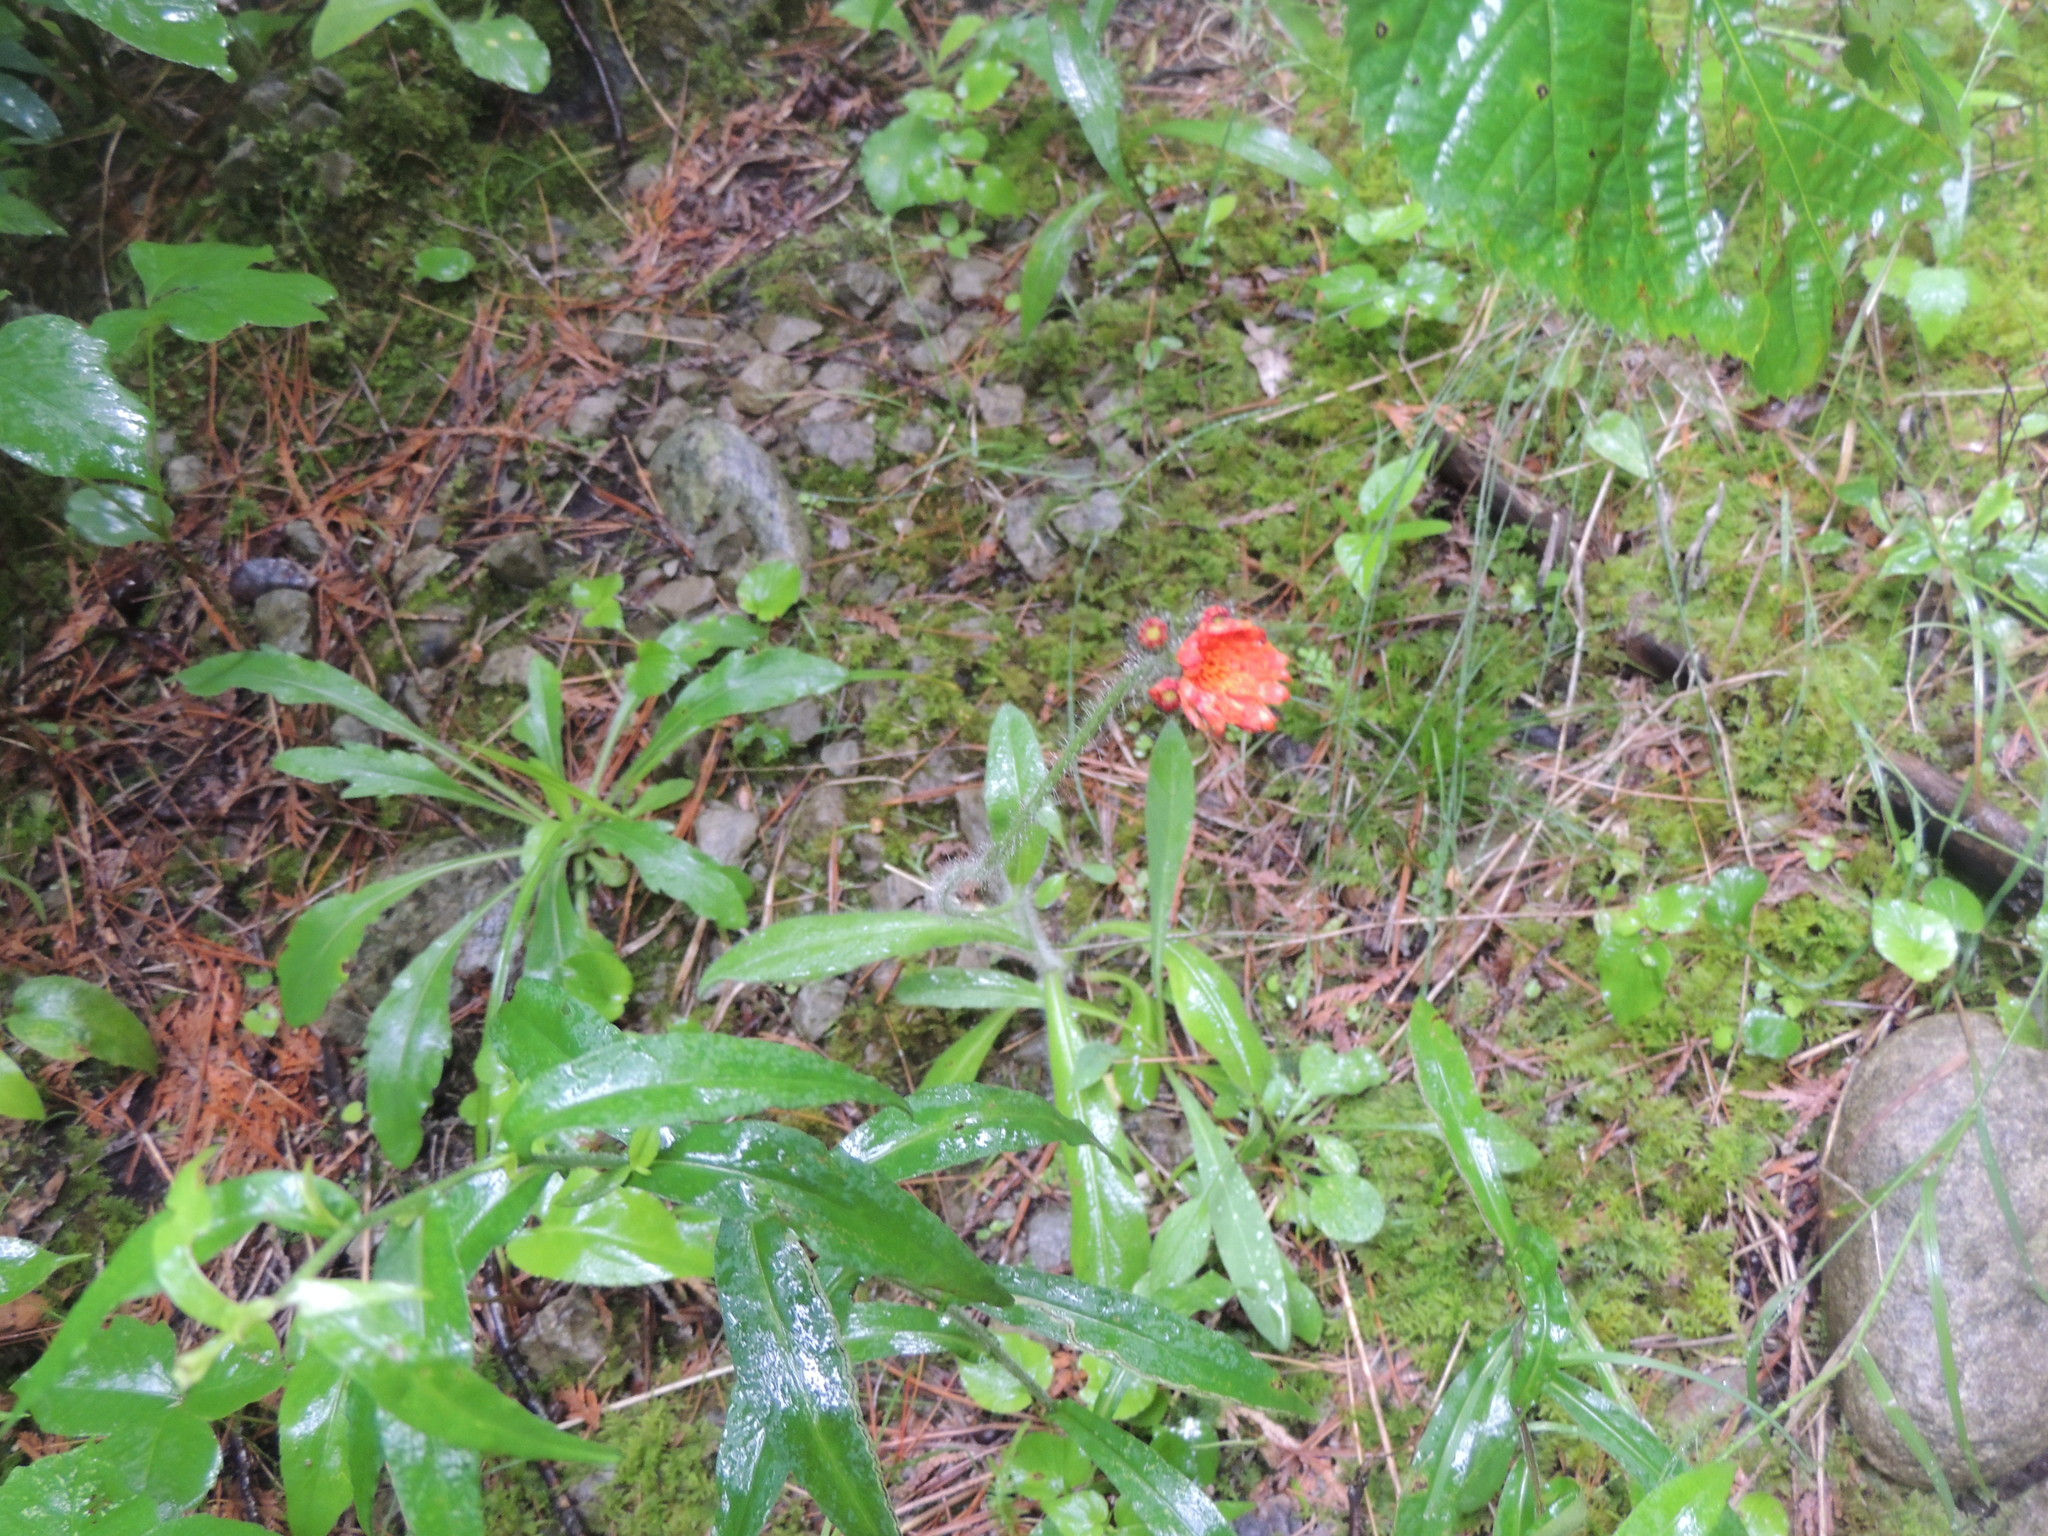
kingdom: Plantae
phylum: Tracheophyta
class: Magnoliopsida
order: Asterales
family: Asteraceae
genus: Pilosella
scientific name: Pilosella aurantiaca
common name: Fox-and-cubs
